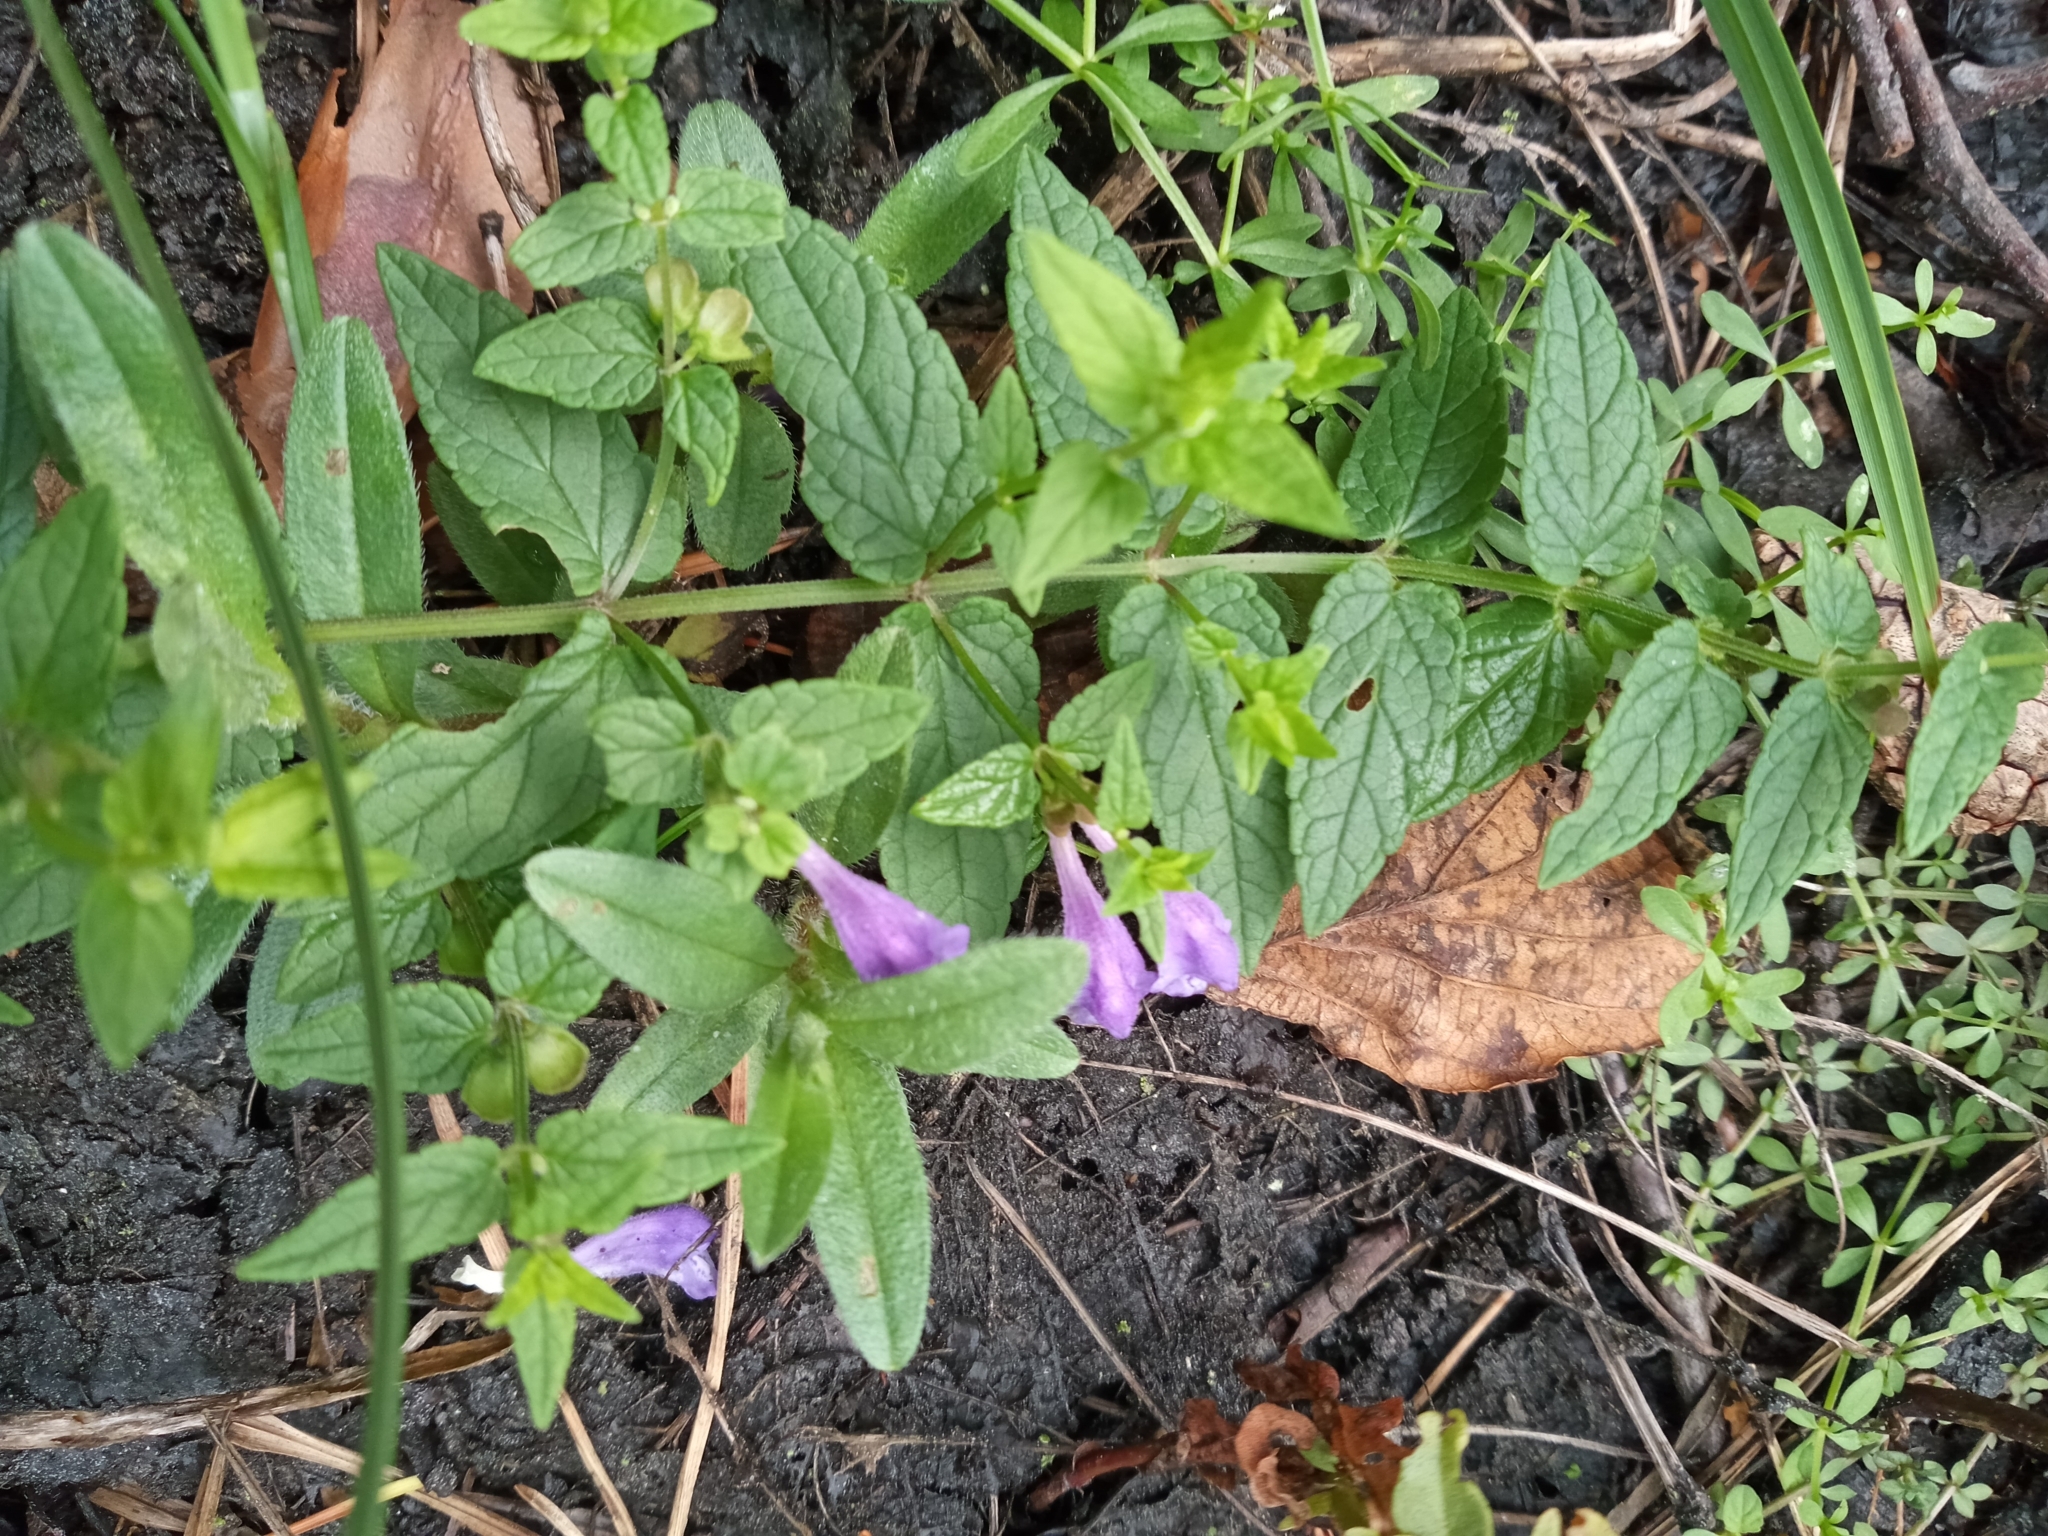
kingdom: Plantae
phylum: Tracheophyta
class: Magnoliopsida
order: Lamiales
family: Lamiaceae
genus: Scutellaria
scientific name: Scutellaria galericulata
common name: Skullcap
